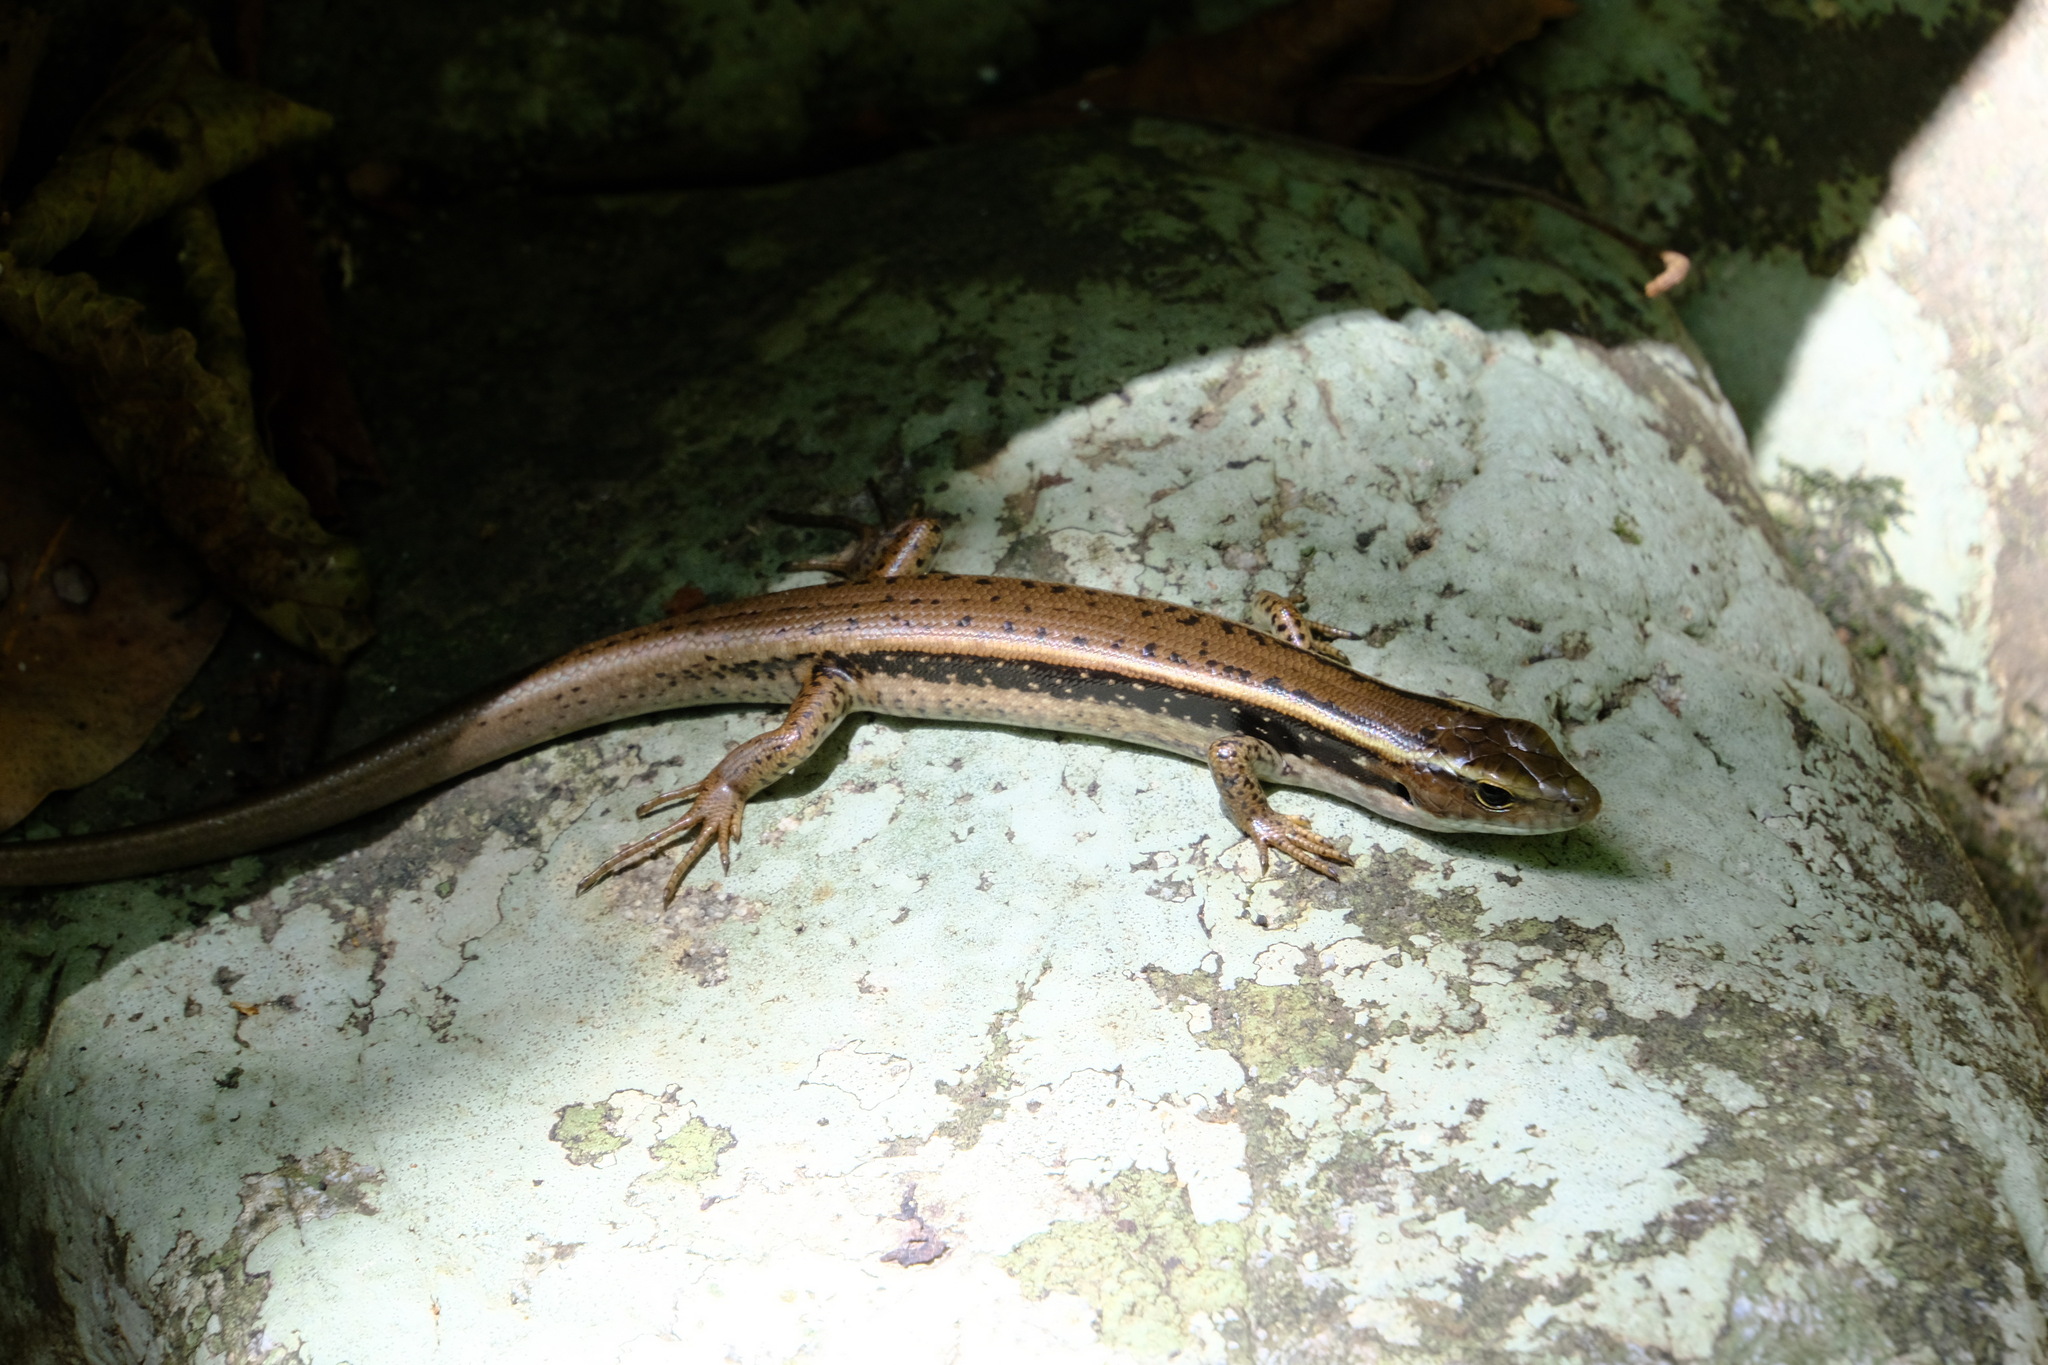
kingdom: Animalia
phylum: Chordata
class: Squamata
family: Scincidae
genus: Eulamprus
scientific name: Eulamprus quoyii
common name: Eastern water skink
